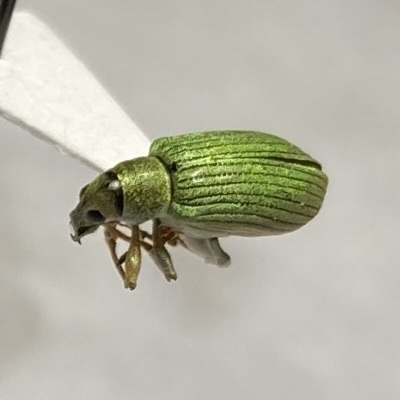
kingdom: Animalia
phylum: Arthropoda
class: Insecta
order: Coleoptera
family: Curculionidae
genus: Polydrusus
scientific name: Polydrusus formosus
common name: Weevil
